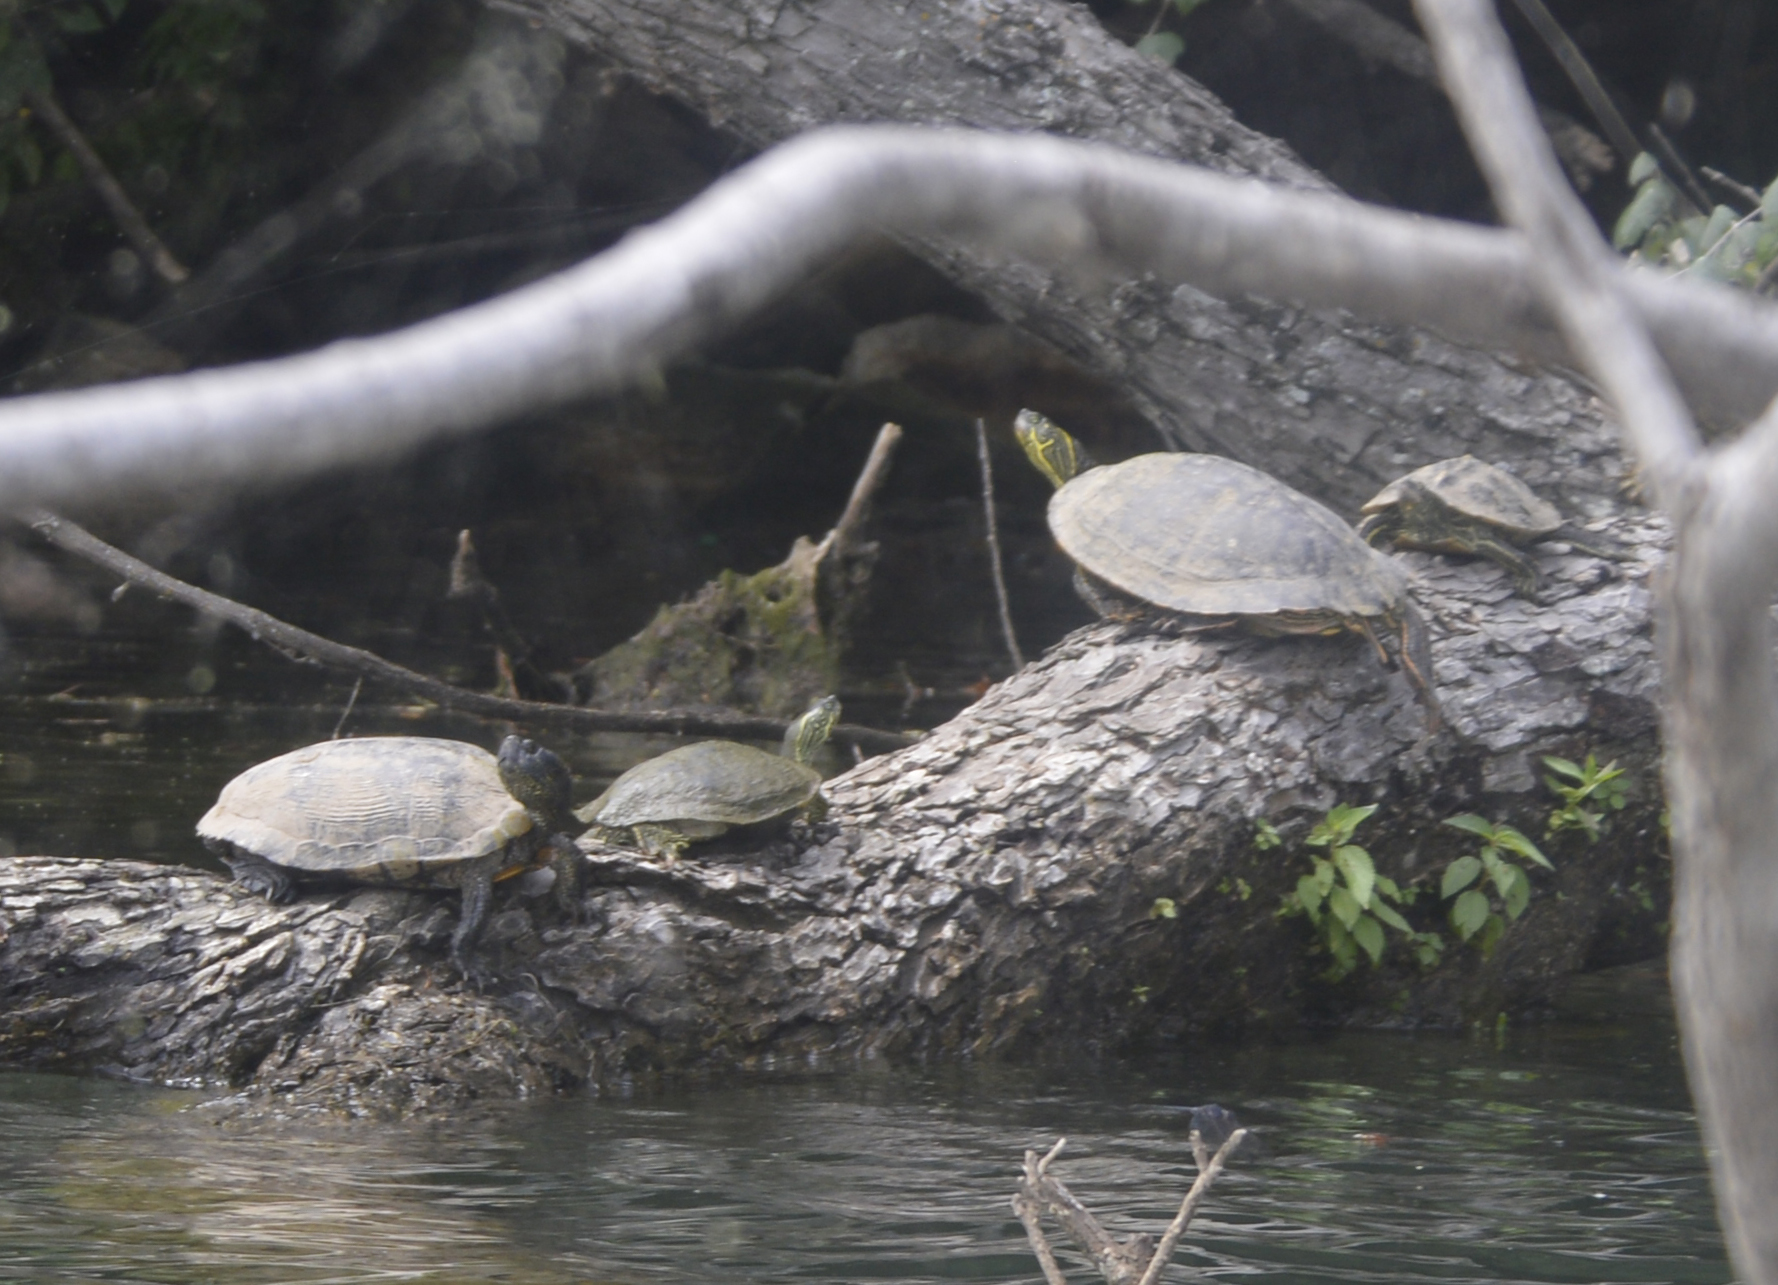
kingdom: Animalia
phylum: Chordata
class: Testudines
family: Emydidae
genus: Pseudemys
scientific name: Pseudemys texana
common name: Texas river cooter
